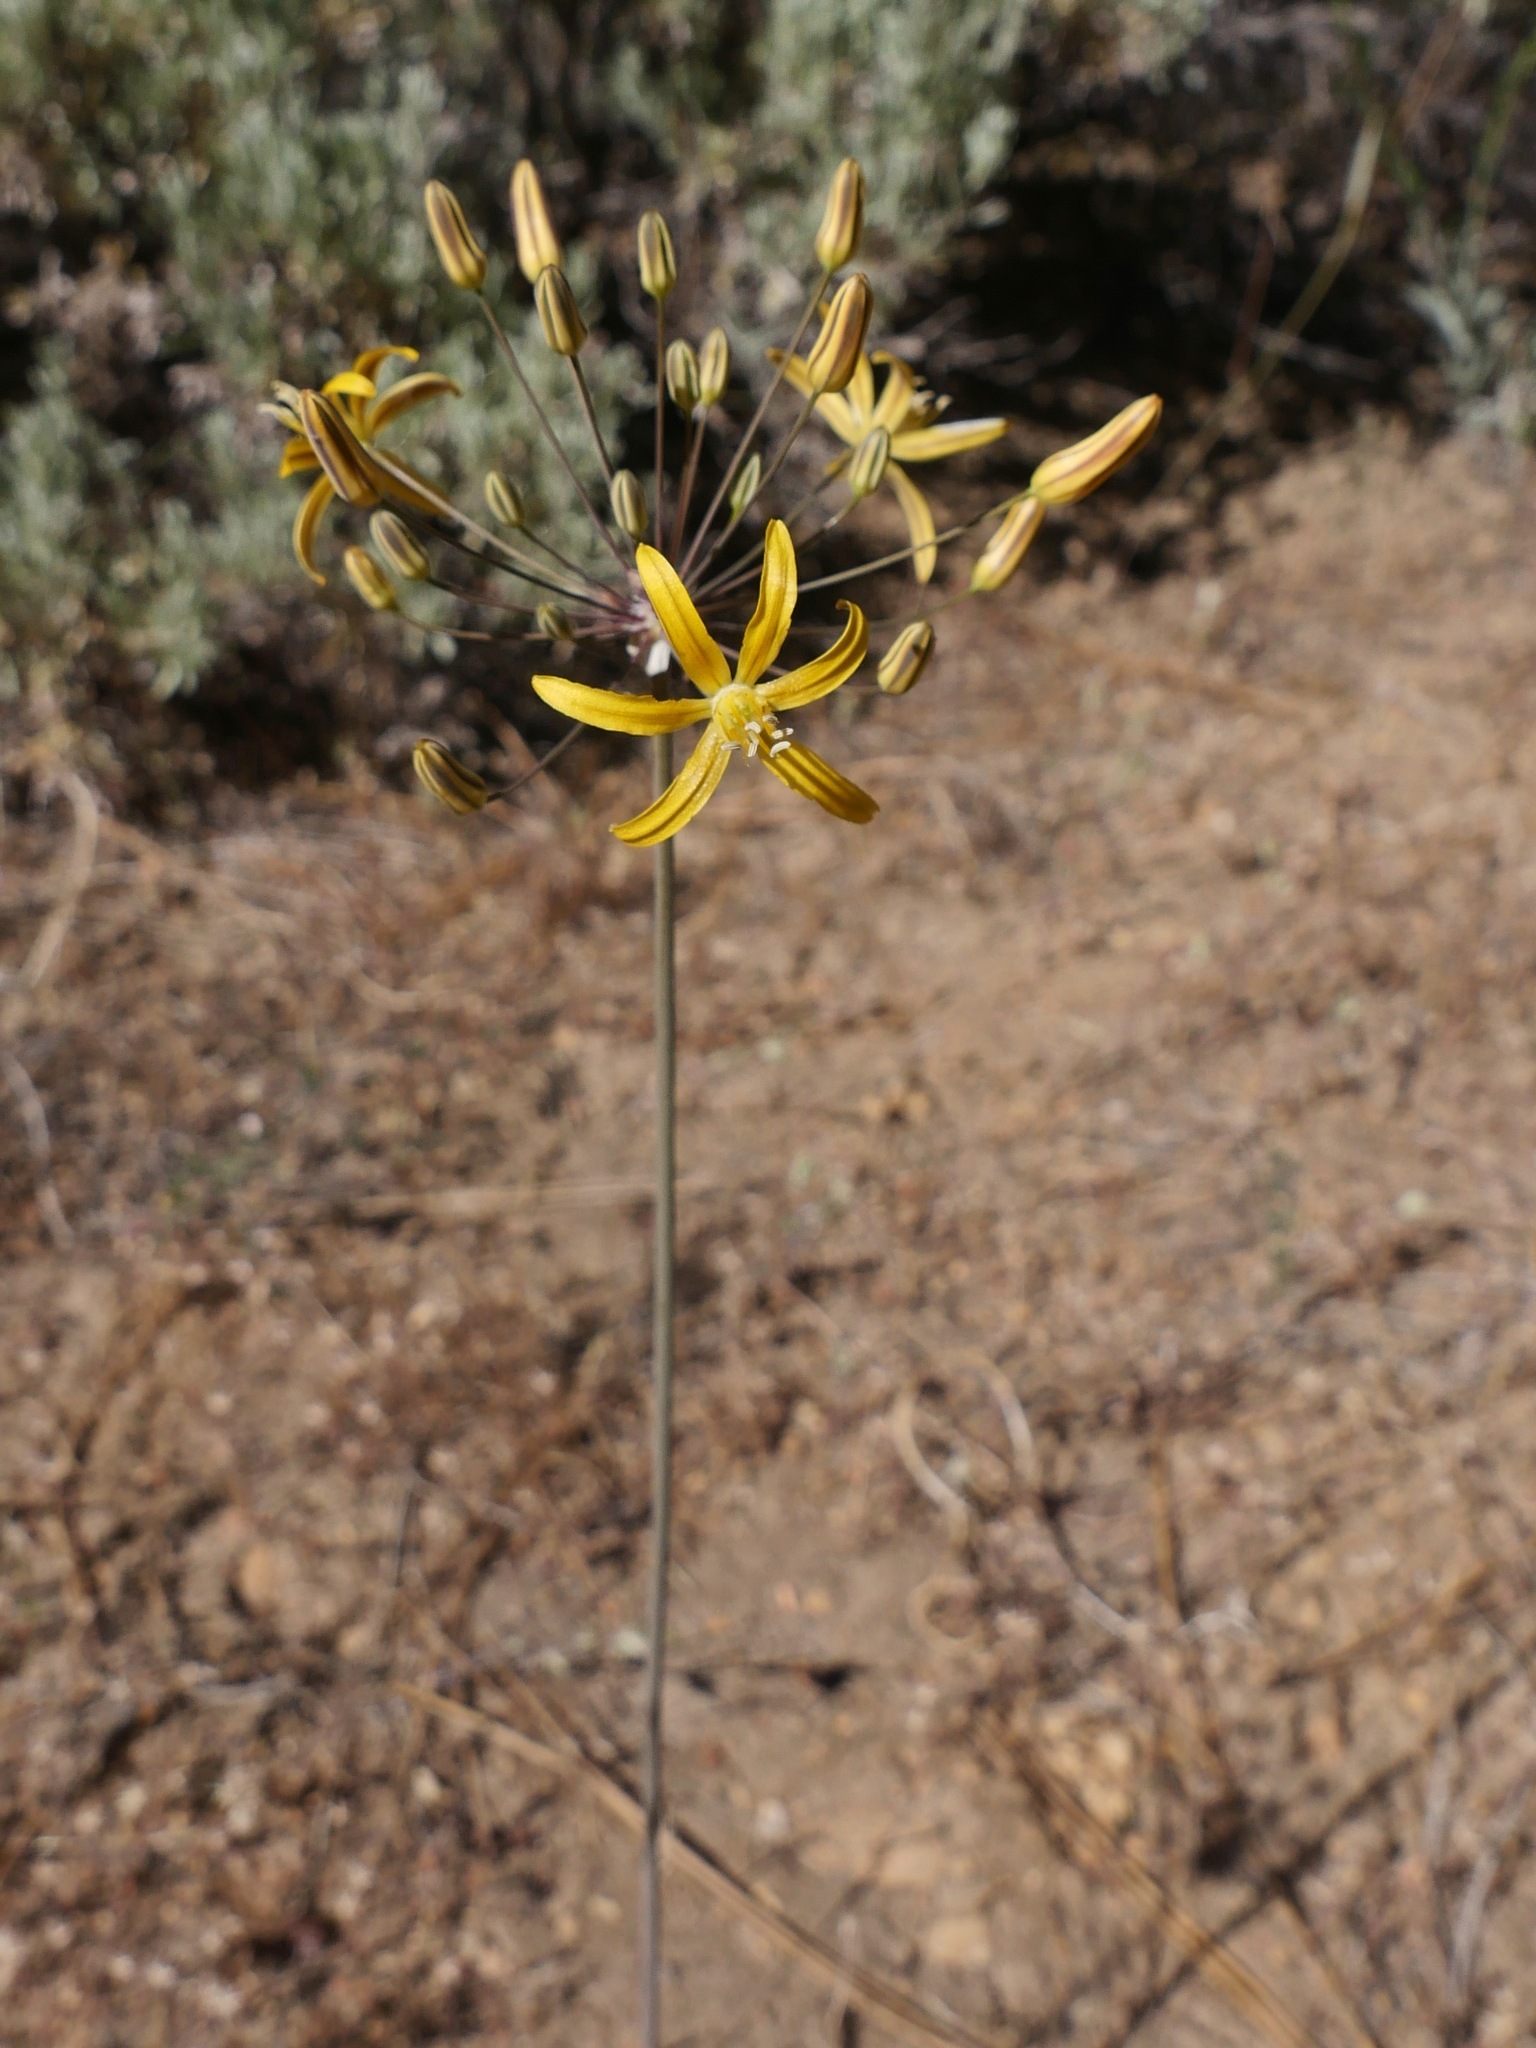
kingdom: Plantae
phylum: Tracheophyta
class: Liliopsida
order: Asparagales
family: Asparagaceae
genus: Bloomeria
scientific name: Bloomeria crocea
